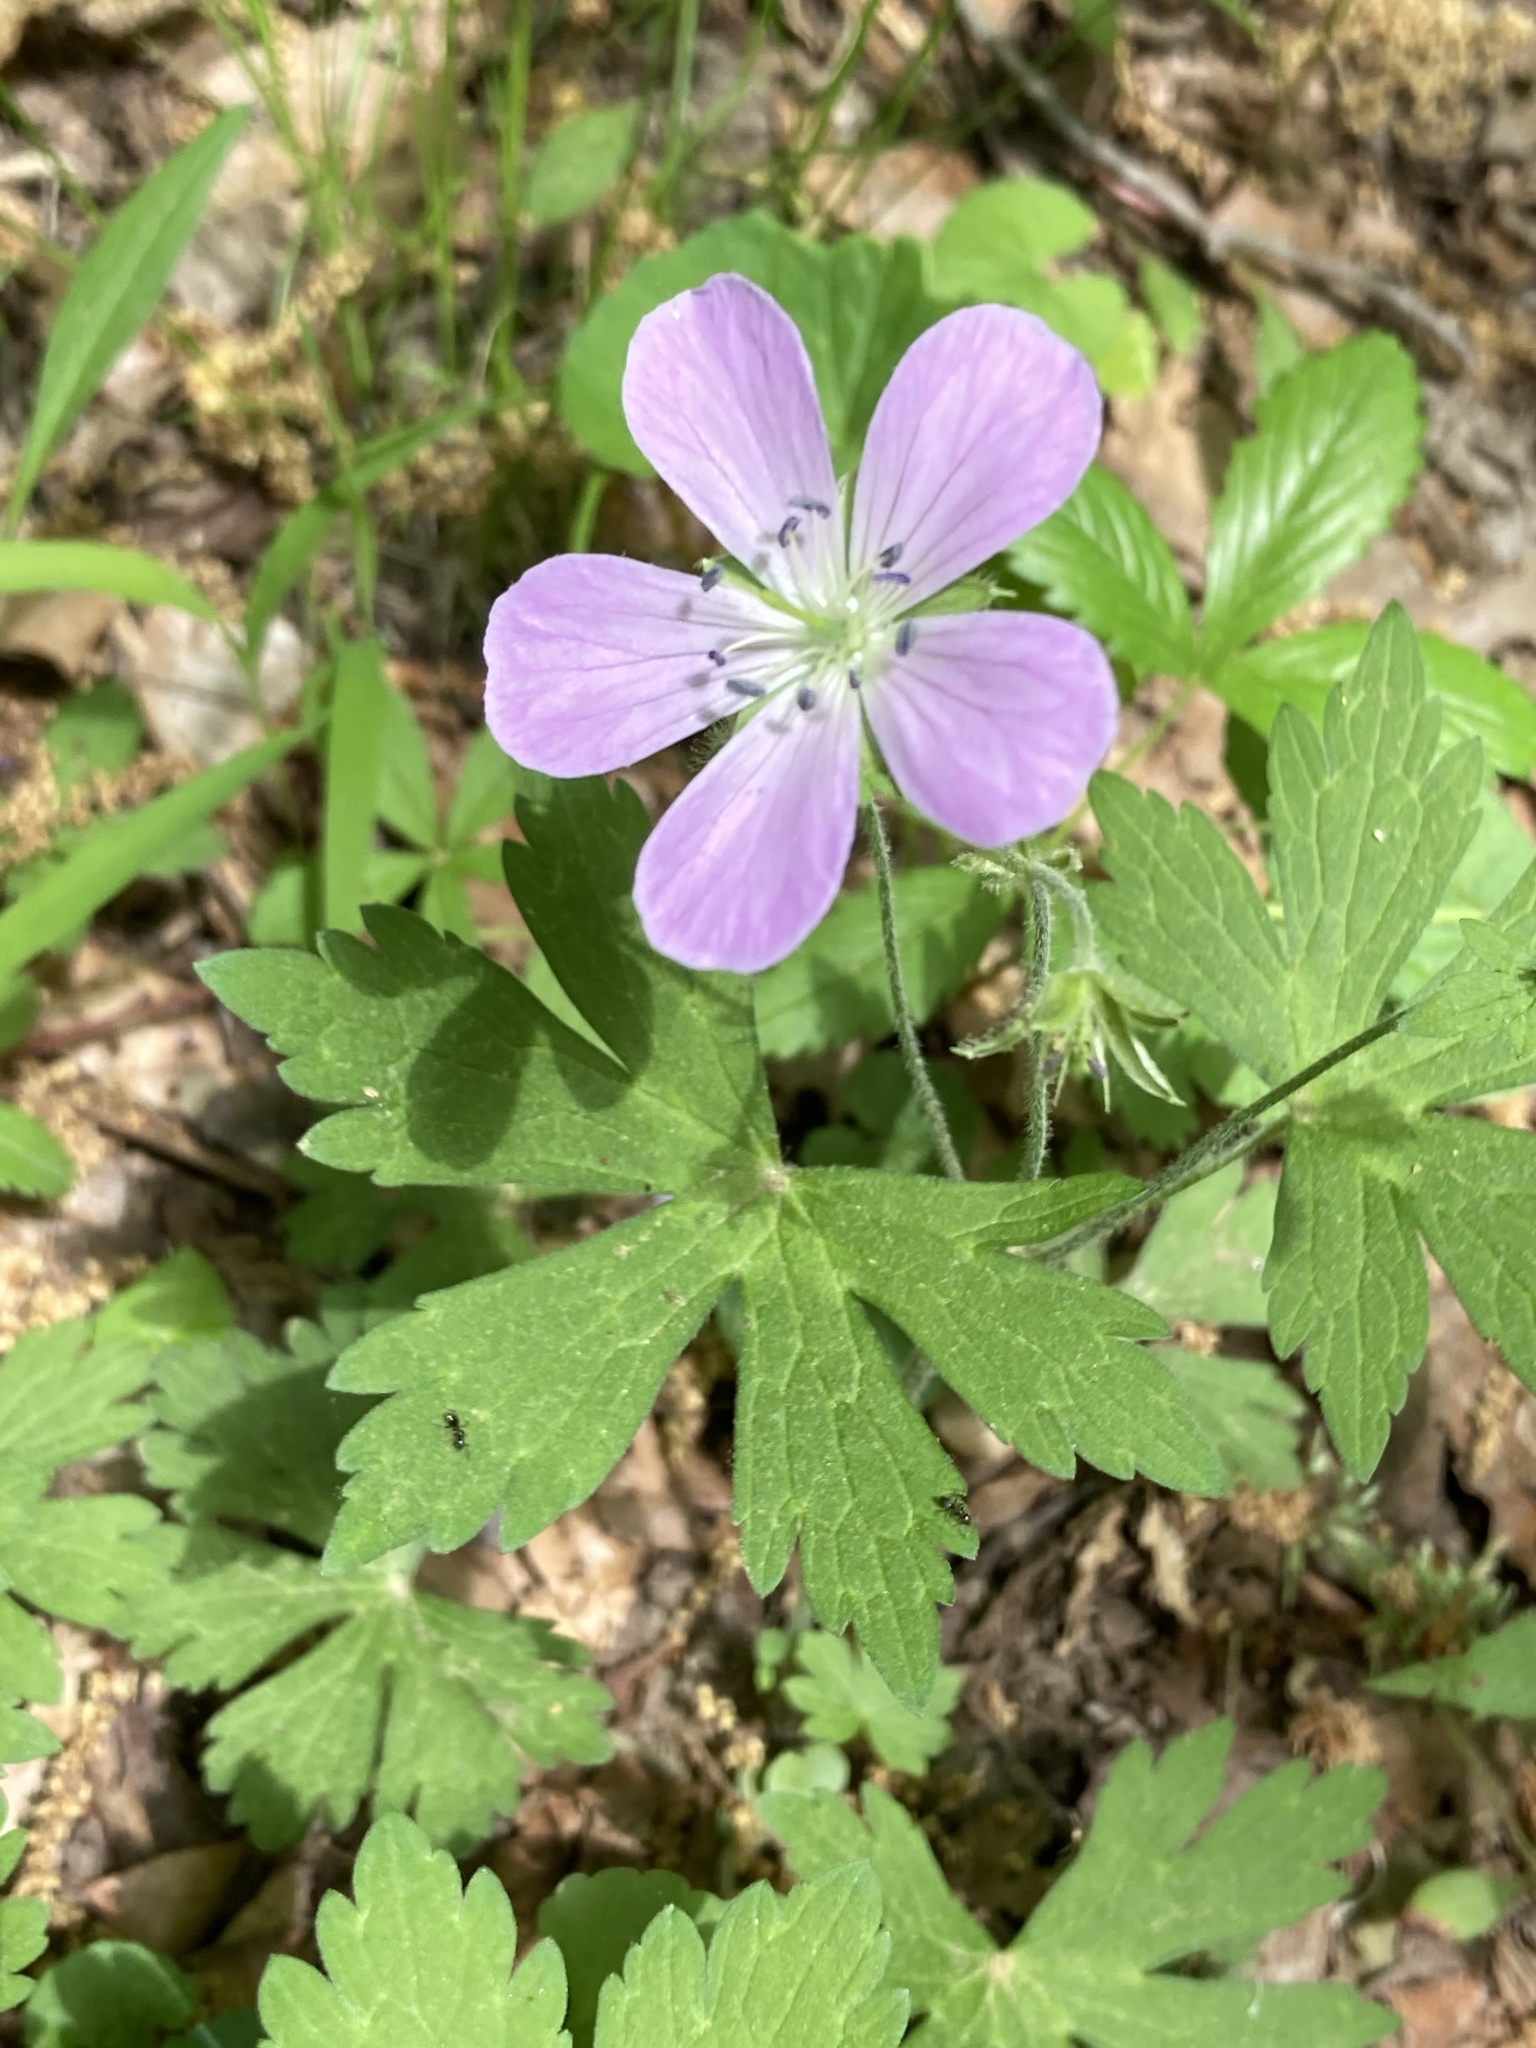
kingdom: Plantae
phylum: Tracheophyta
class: Magnoliopsida
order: Geraniales
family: Geraniaceae
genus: Geranium
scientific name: Geranium maculatum
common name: Spotted geranium
